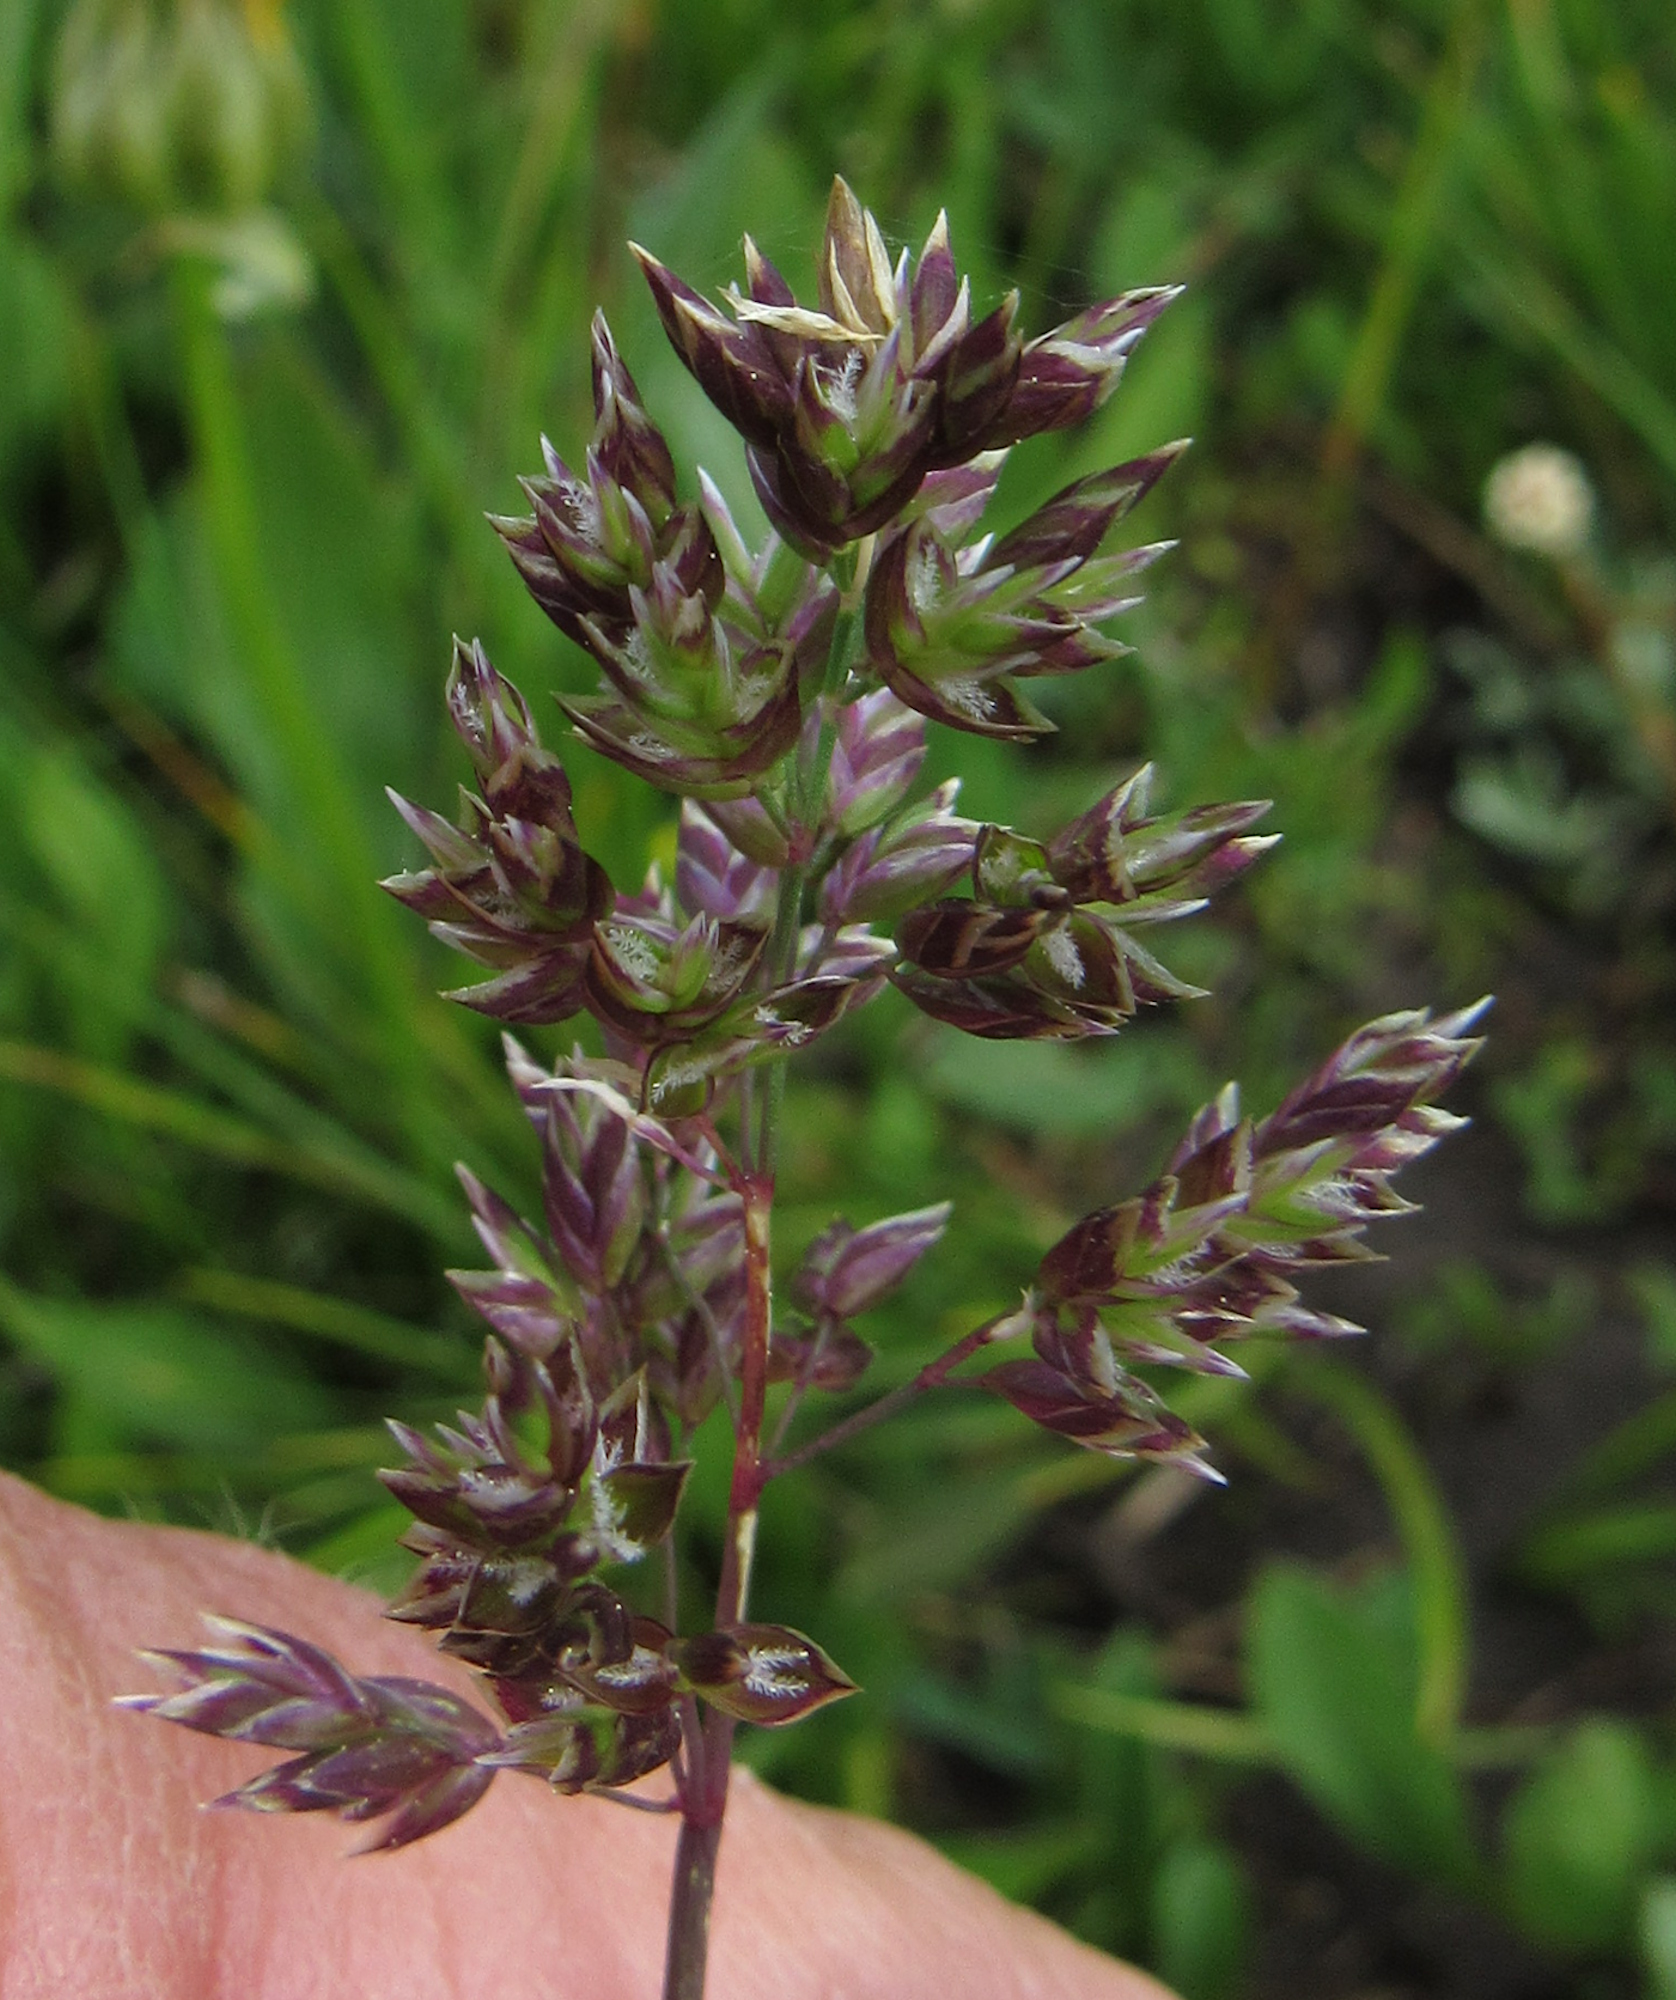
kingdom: Plantae
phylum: Tracheophyta
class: Liliopsida
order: Poales
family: Poaceae
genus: Poa
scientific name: Poa alpina
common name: Alpine bluegrass
